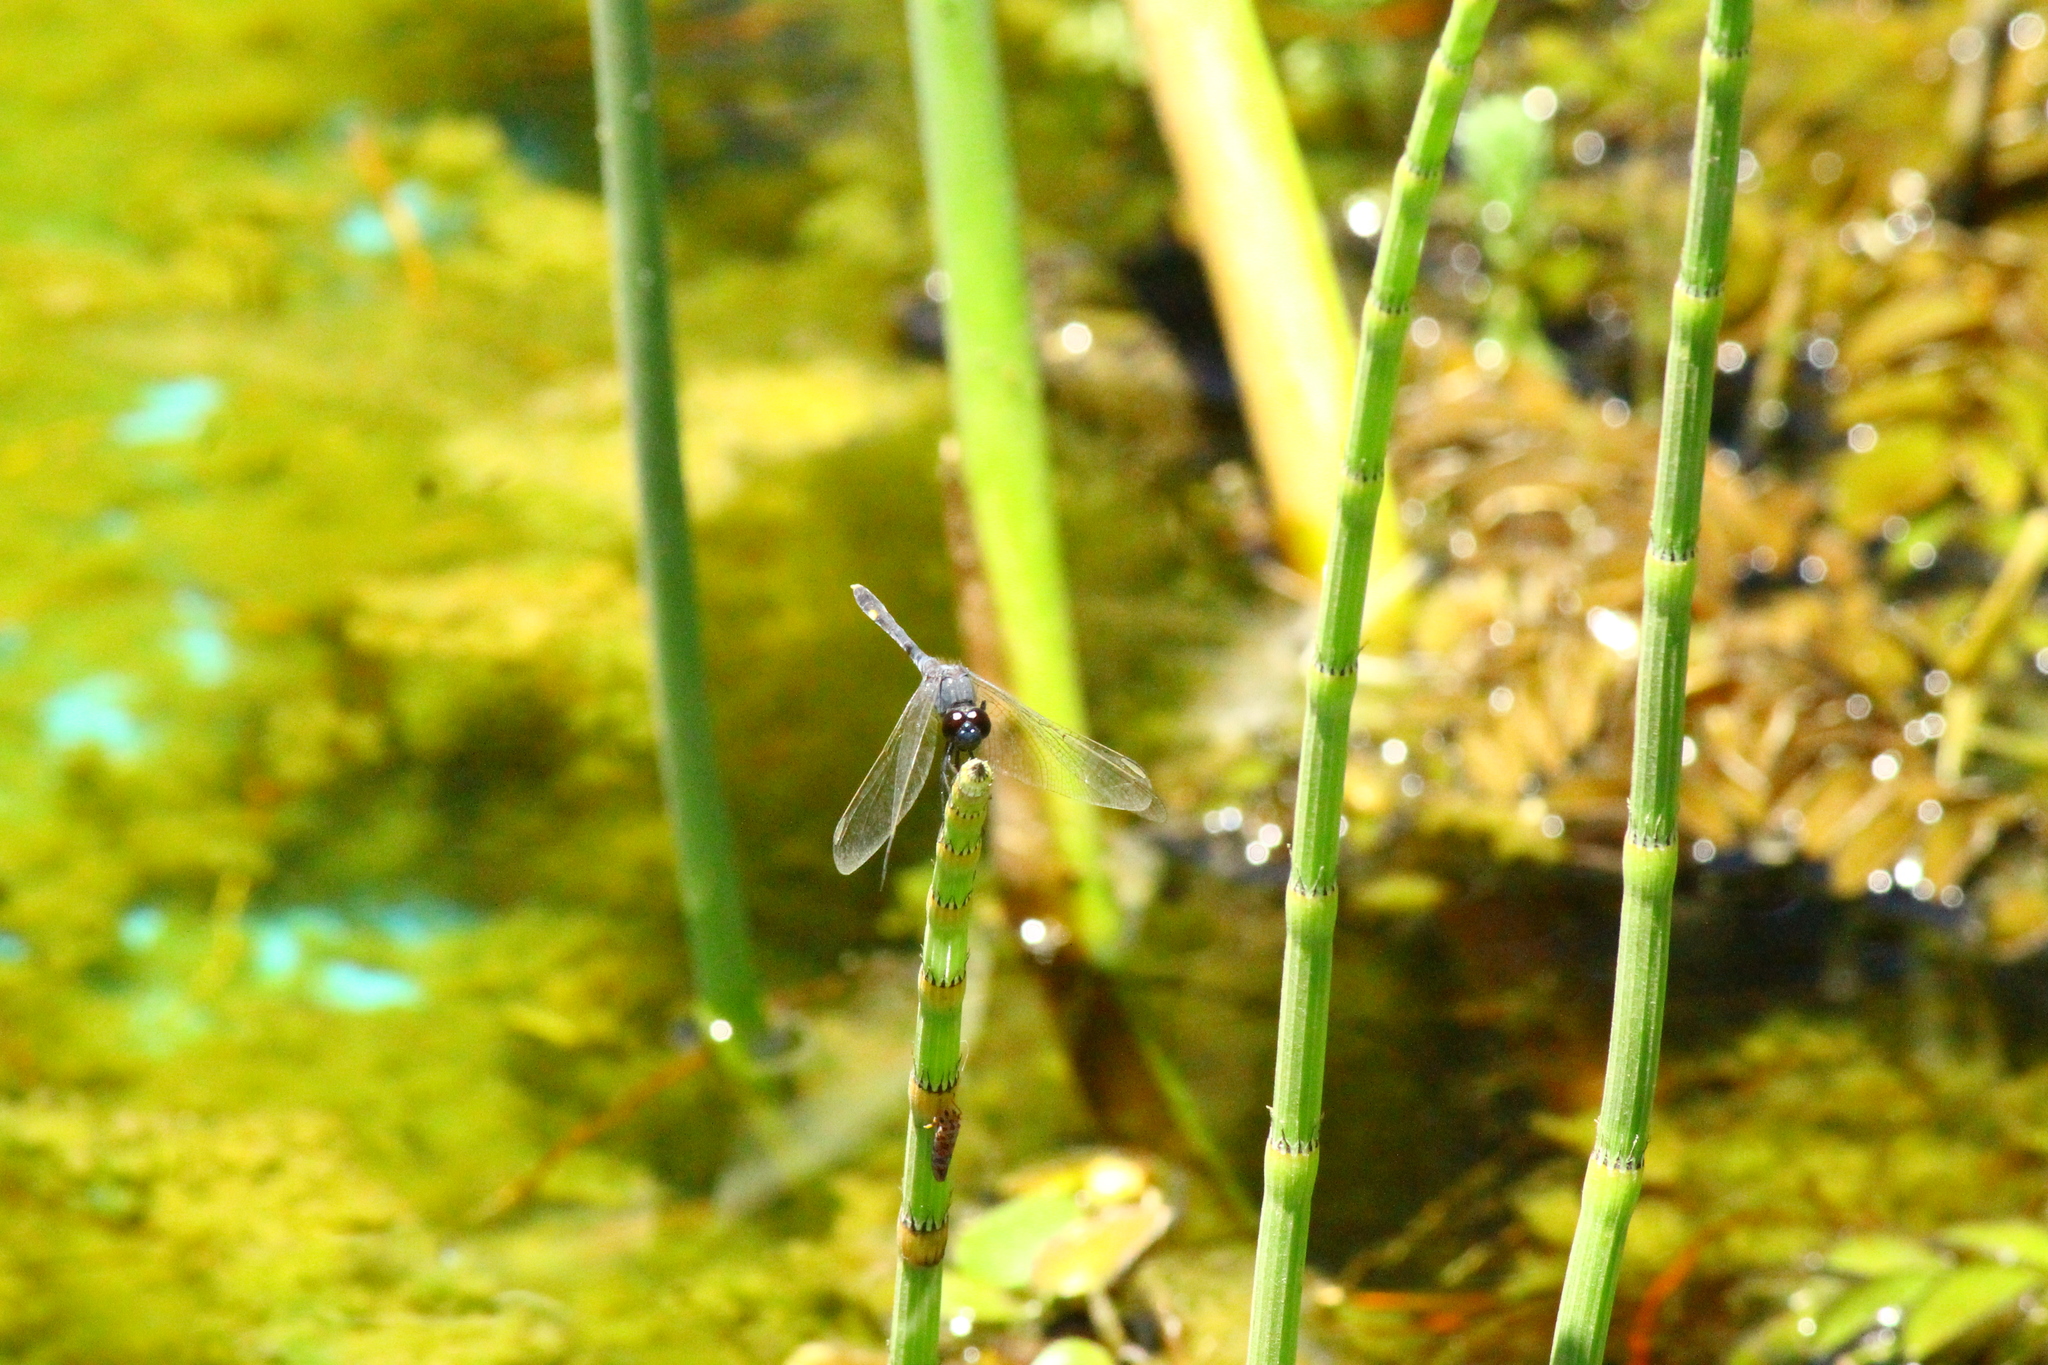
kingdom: Animalia
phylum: Arthropoda
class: Insecta
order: Odonata
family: Libellulidae
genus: Erythrodiplax
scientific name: Erythrodiplax nigricans
